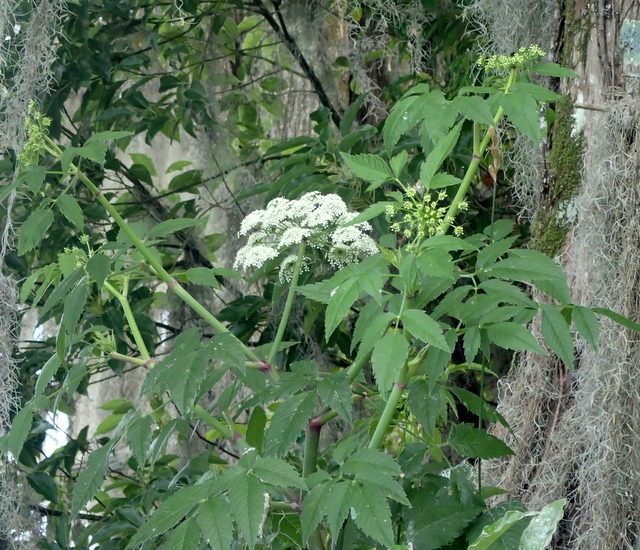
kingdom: Plantae
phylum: Tracheophyta
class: Magnoliopsida
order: Apiales
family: Apiaceae
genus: Cicuta
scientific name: Cicuta maculata
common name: Spotted cowbane
